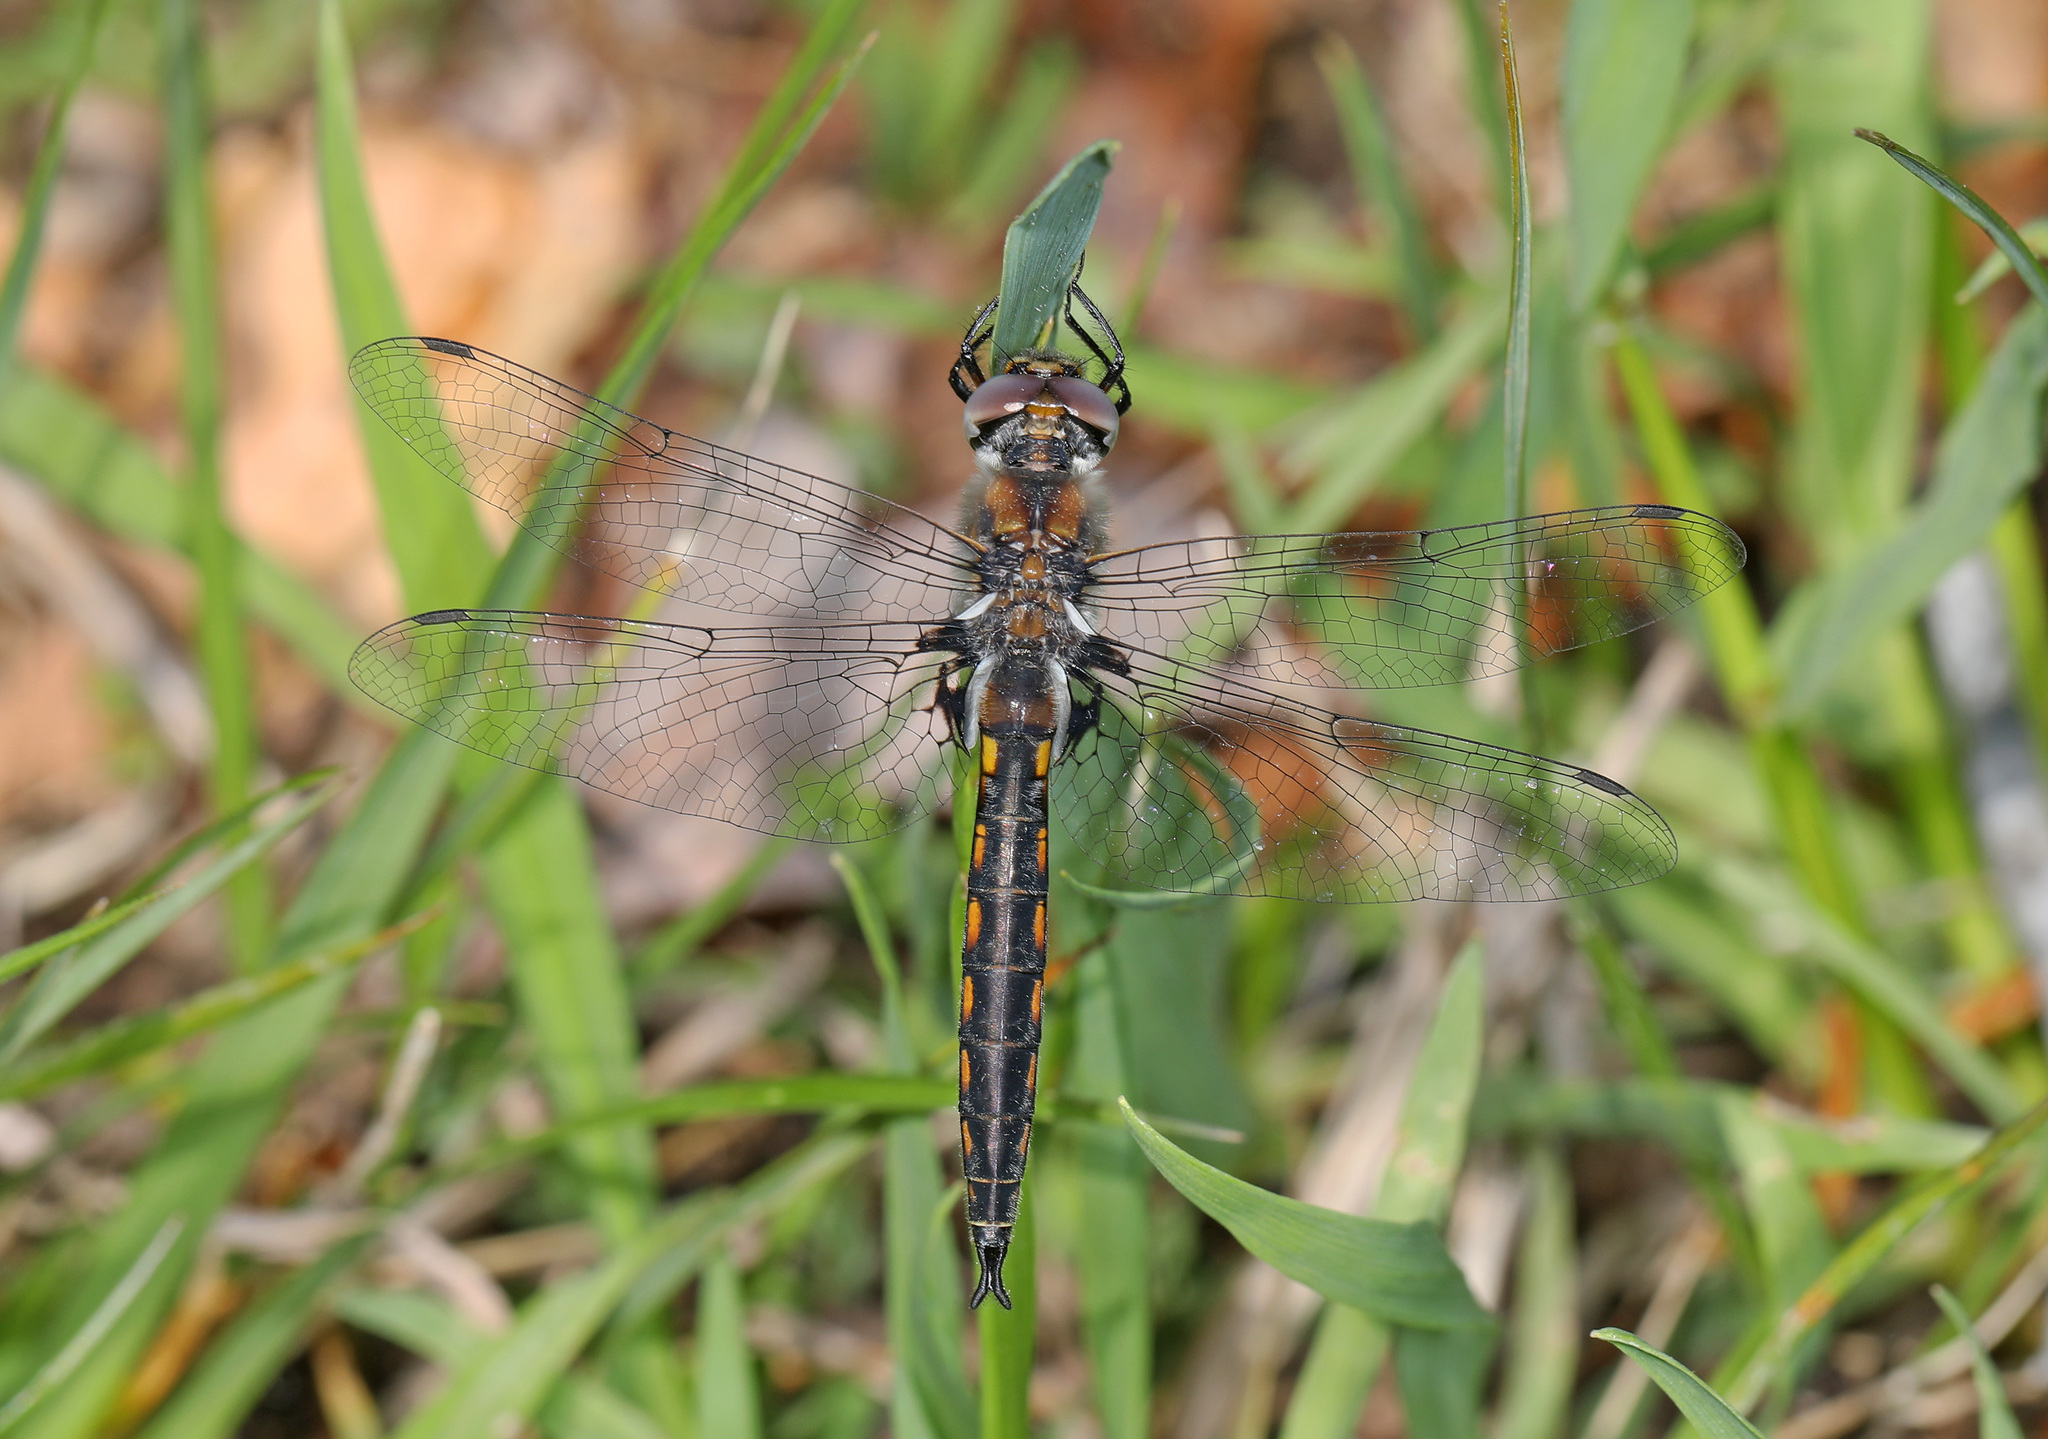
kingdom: Animalia
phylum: Arthropoda
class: Insecta
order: Odonata
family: Corduliidae
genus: Epitheca
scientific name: Epitheca cynosura
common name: Common baskettail
